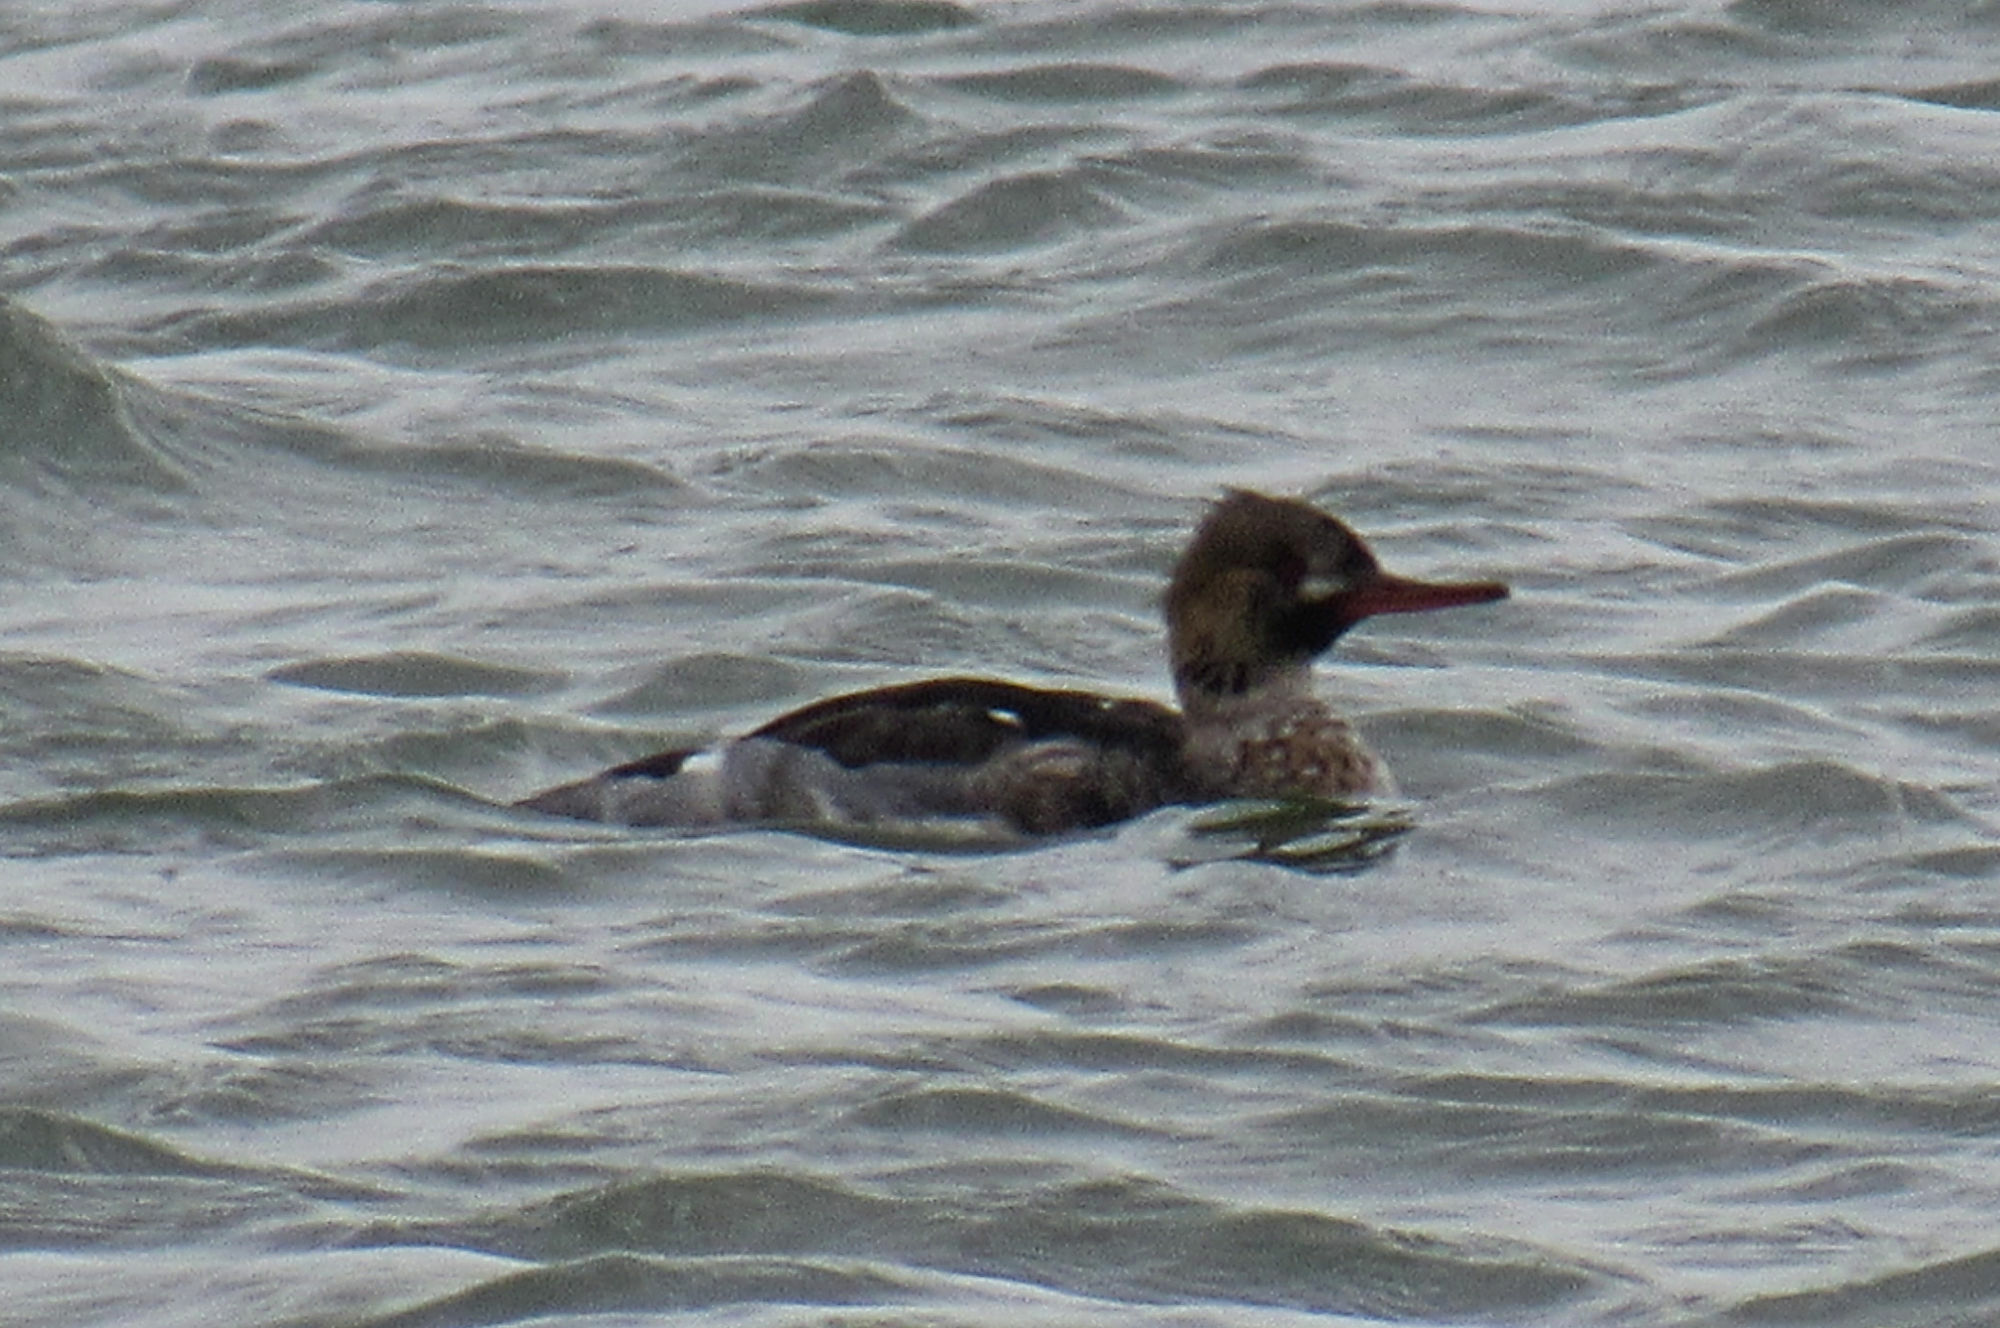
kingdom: Animalia
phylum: Chordata
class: Aves
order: Anseriformes
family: Anatidae
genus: Mergus
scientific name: Mergus serrator
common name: Red-breasted merganser
